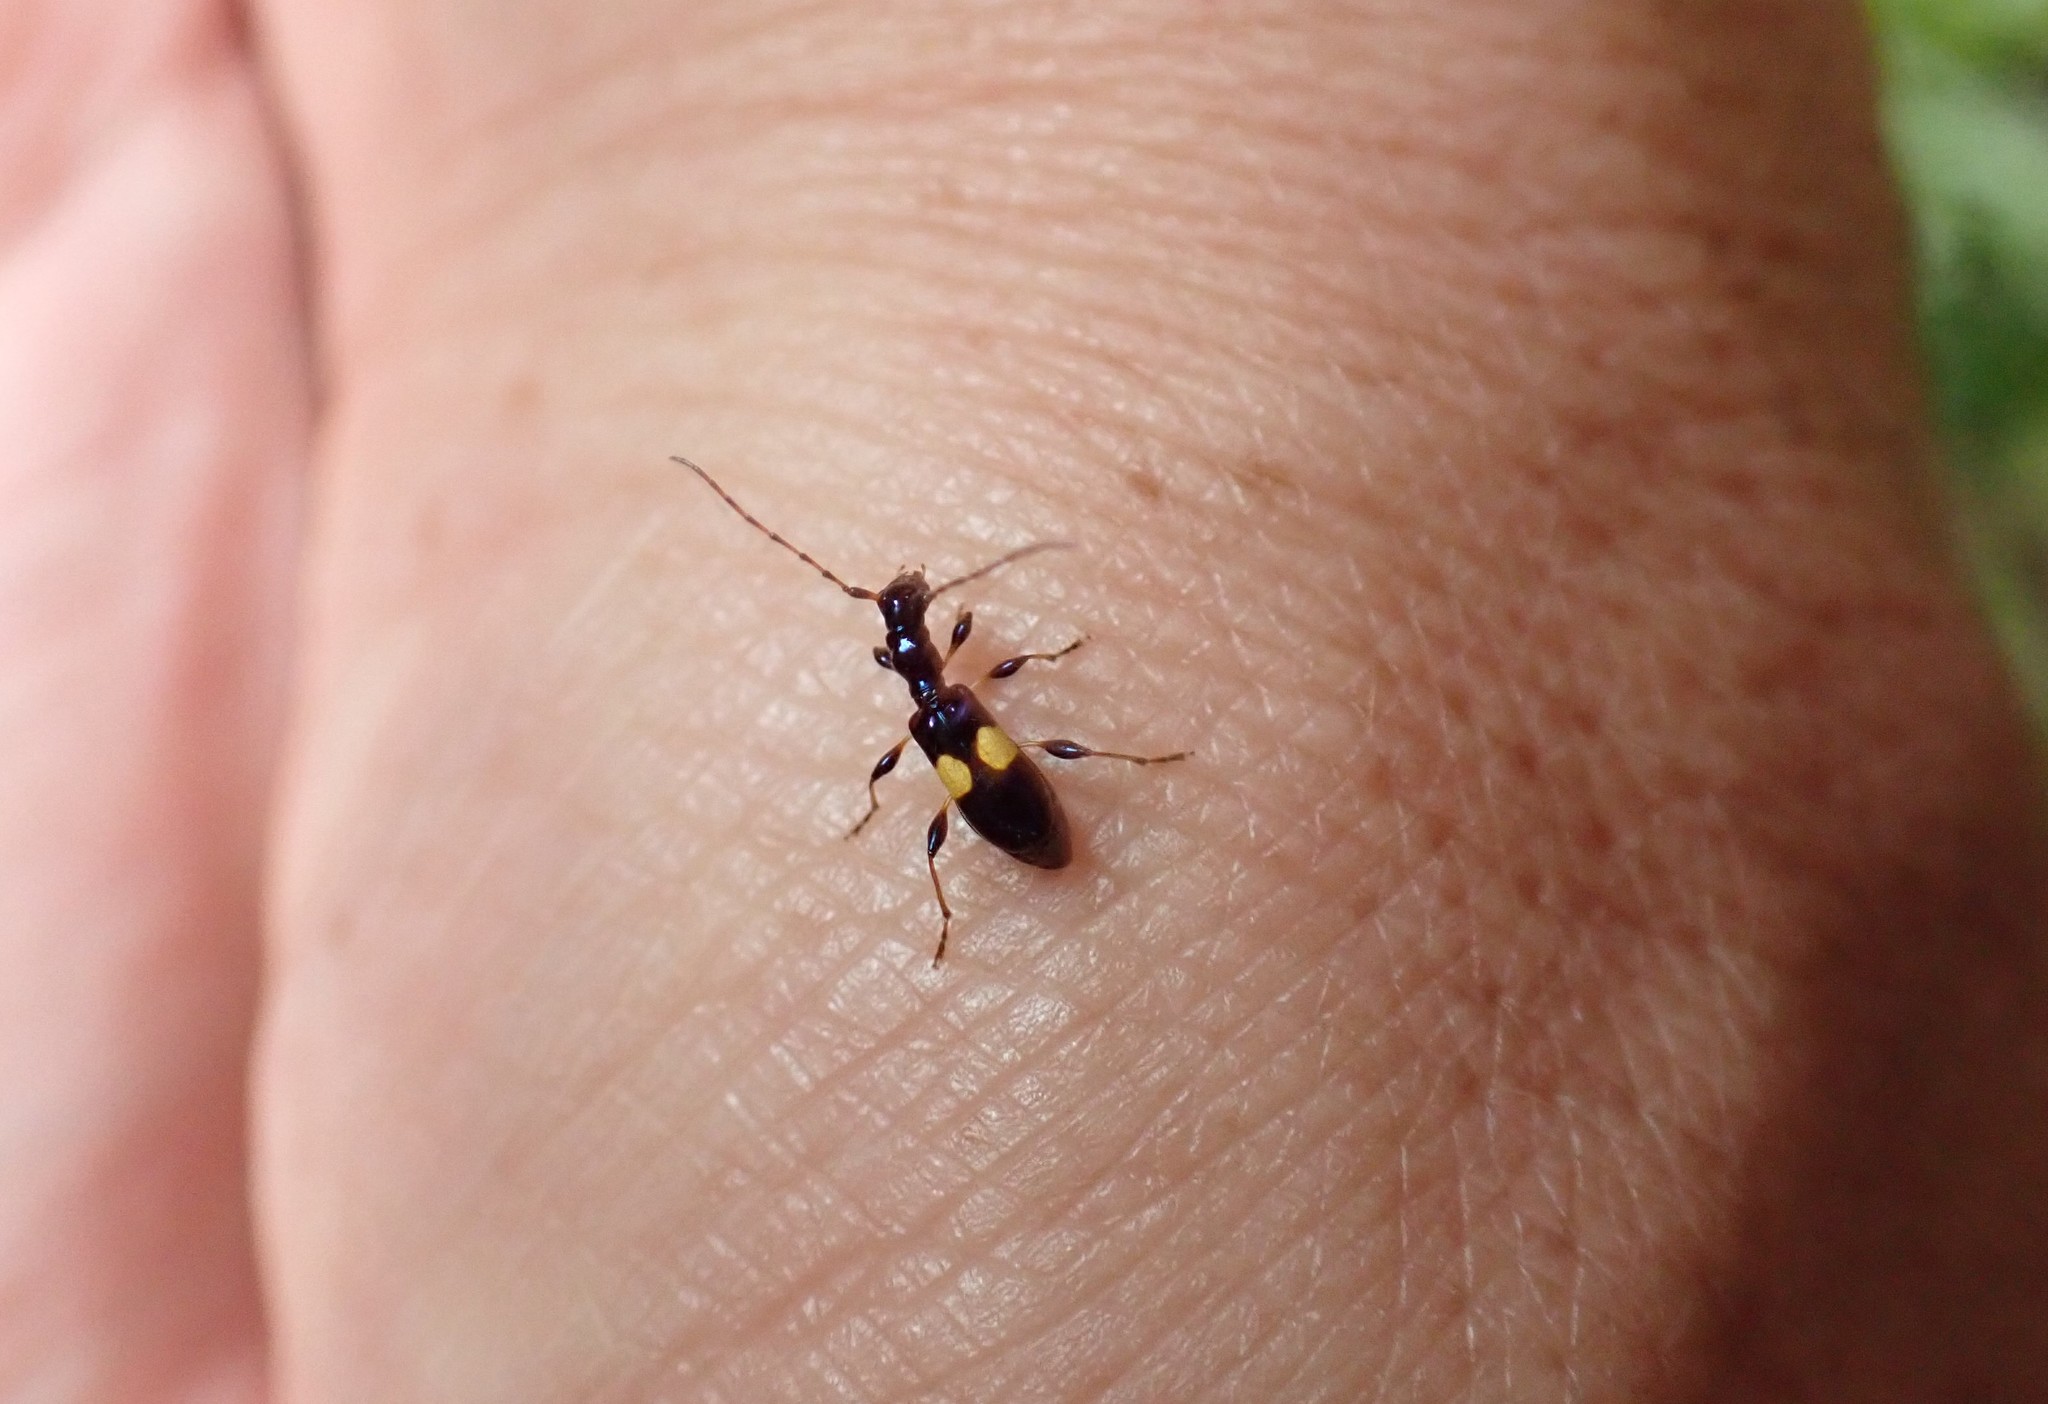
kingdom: Animalia
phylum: Arthropoda
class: Insecta
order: Coleoptera
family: Cerambycidae
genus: Zorion
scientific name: Zorion guttigerum
